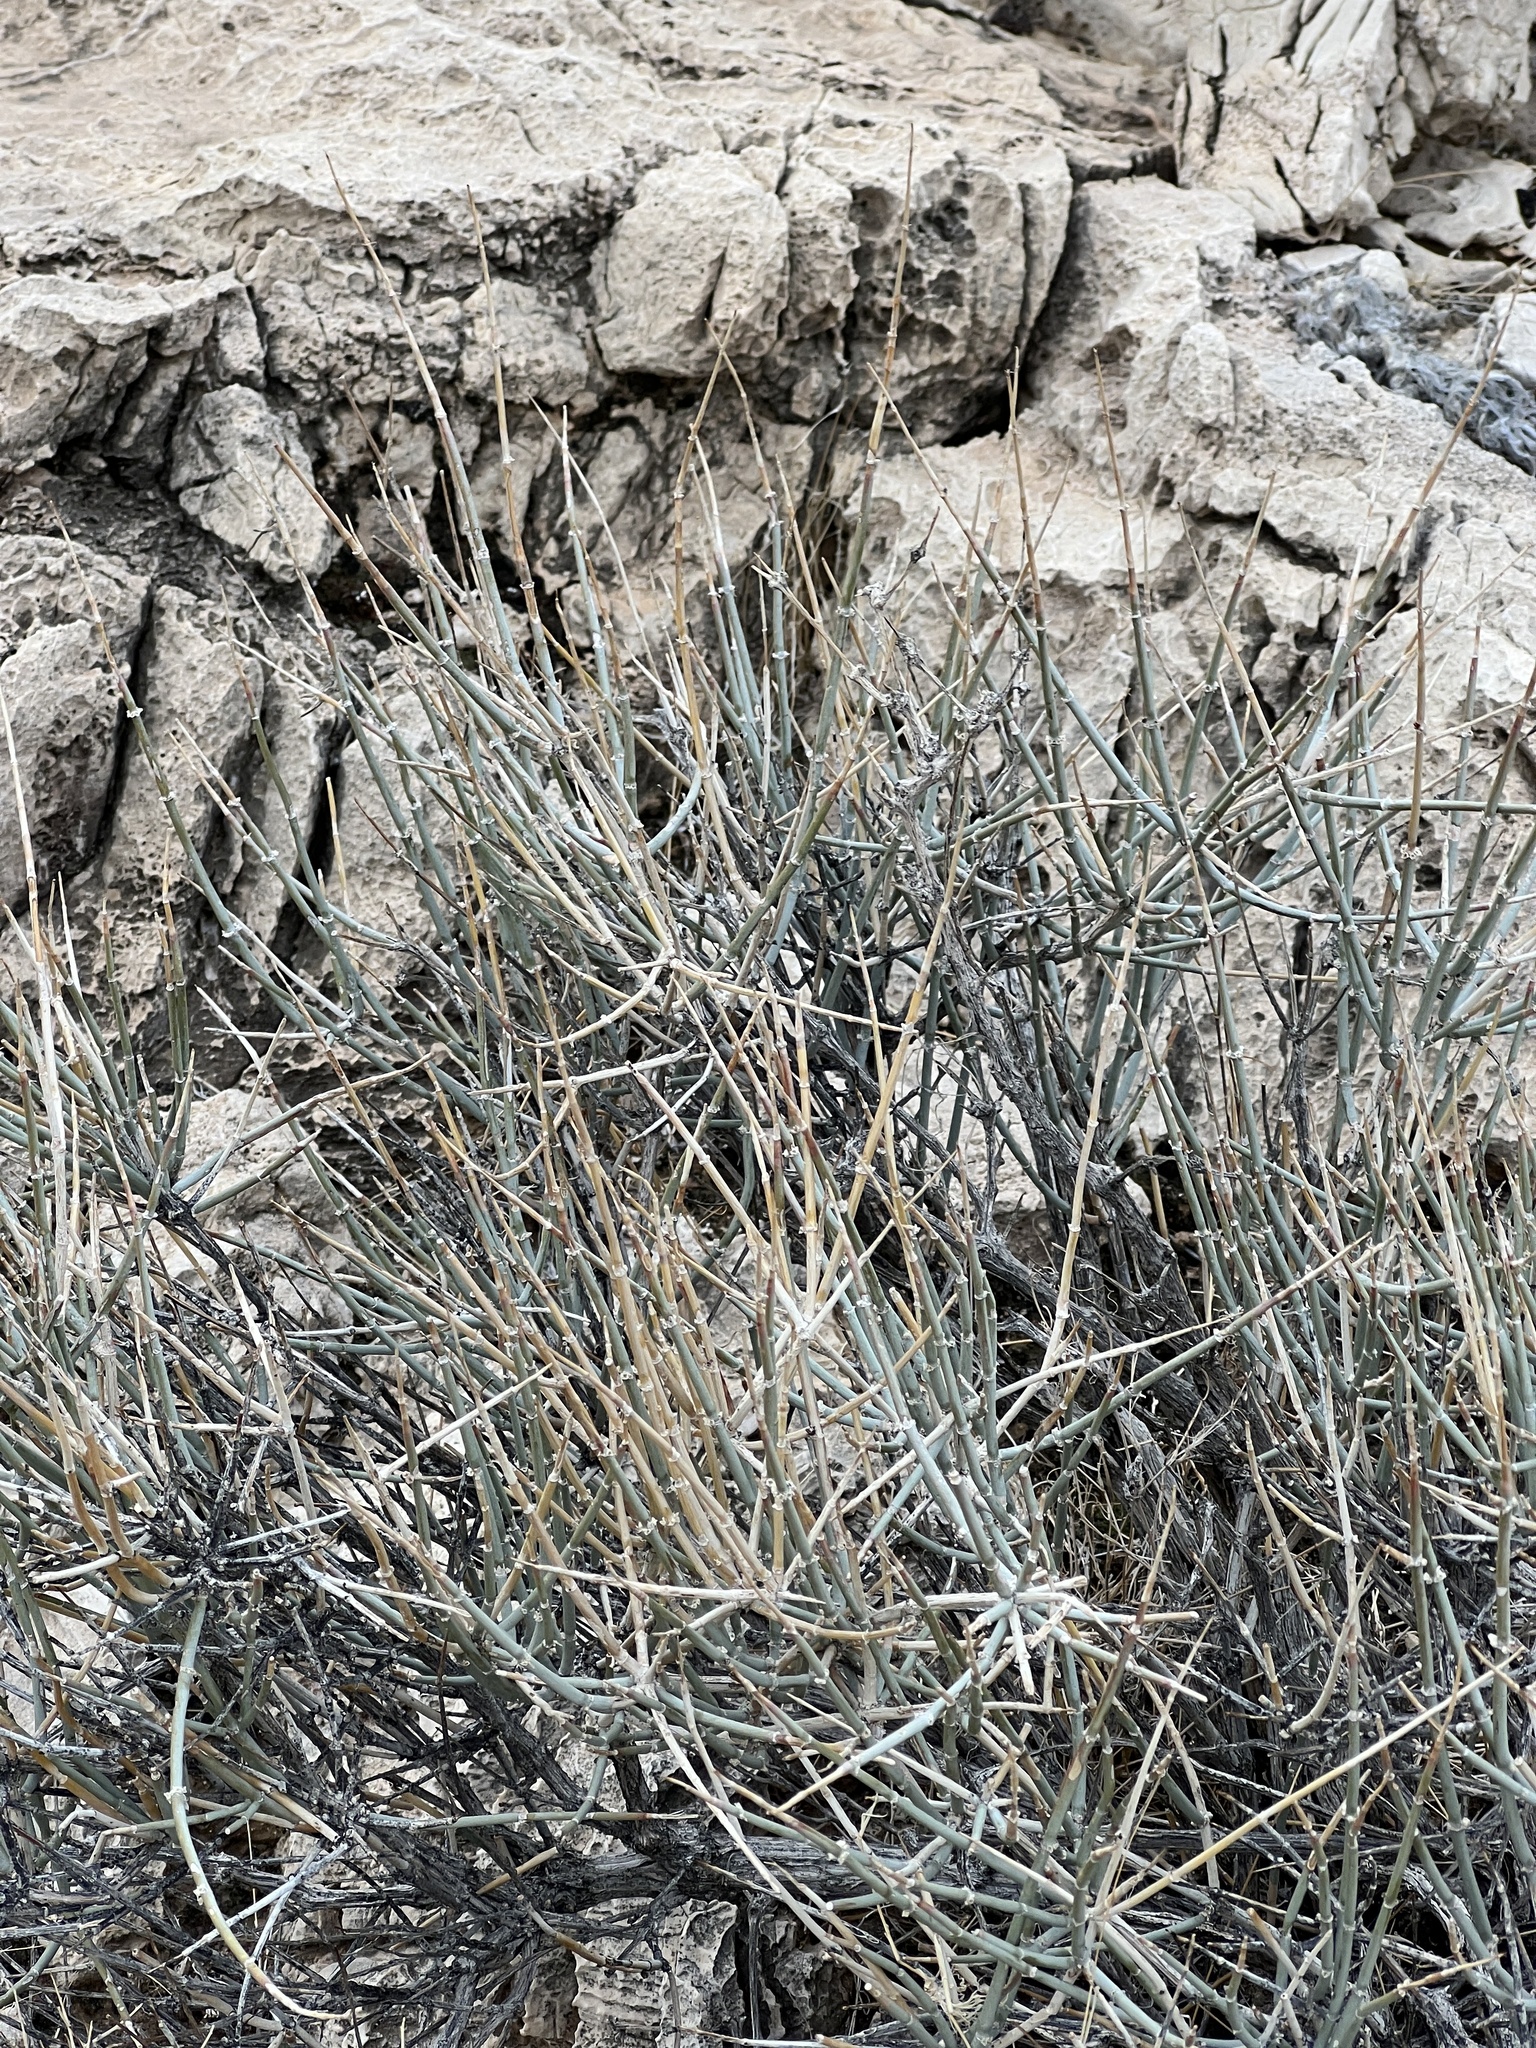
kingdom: Plantae
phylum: Tracheophyta
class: Gnetopsida
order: Ephedrales
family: Ephedraceae
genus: Ephedra
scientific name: Ephedra nevadensis
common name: Gray ephedra
